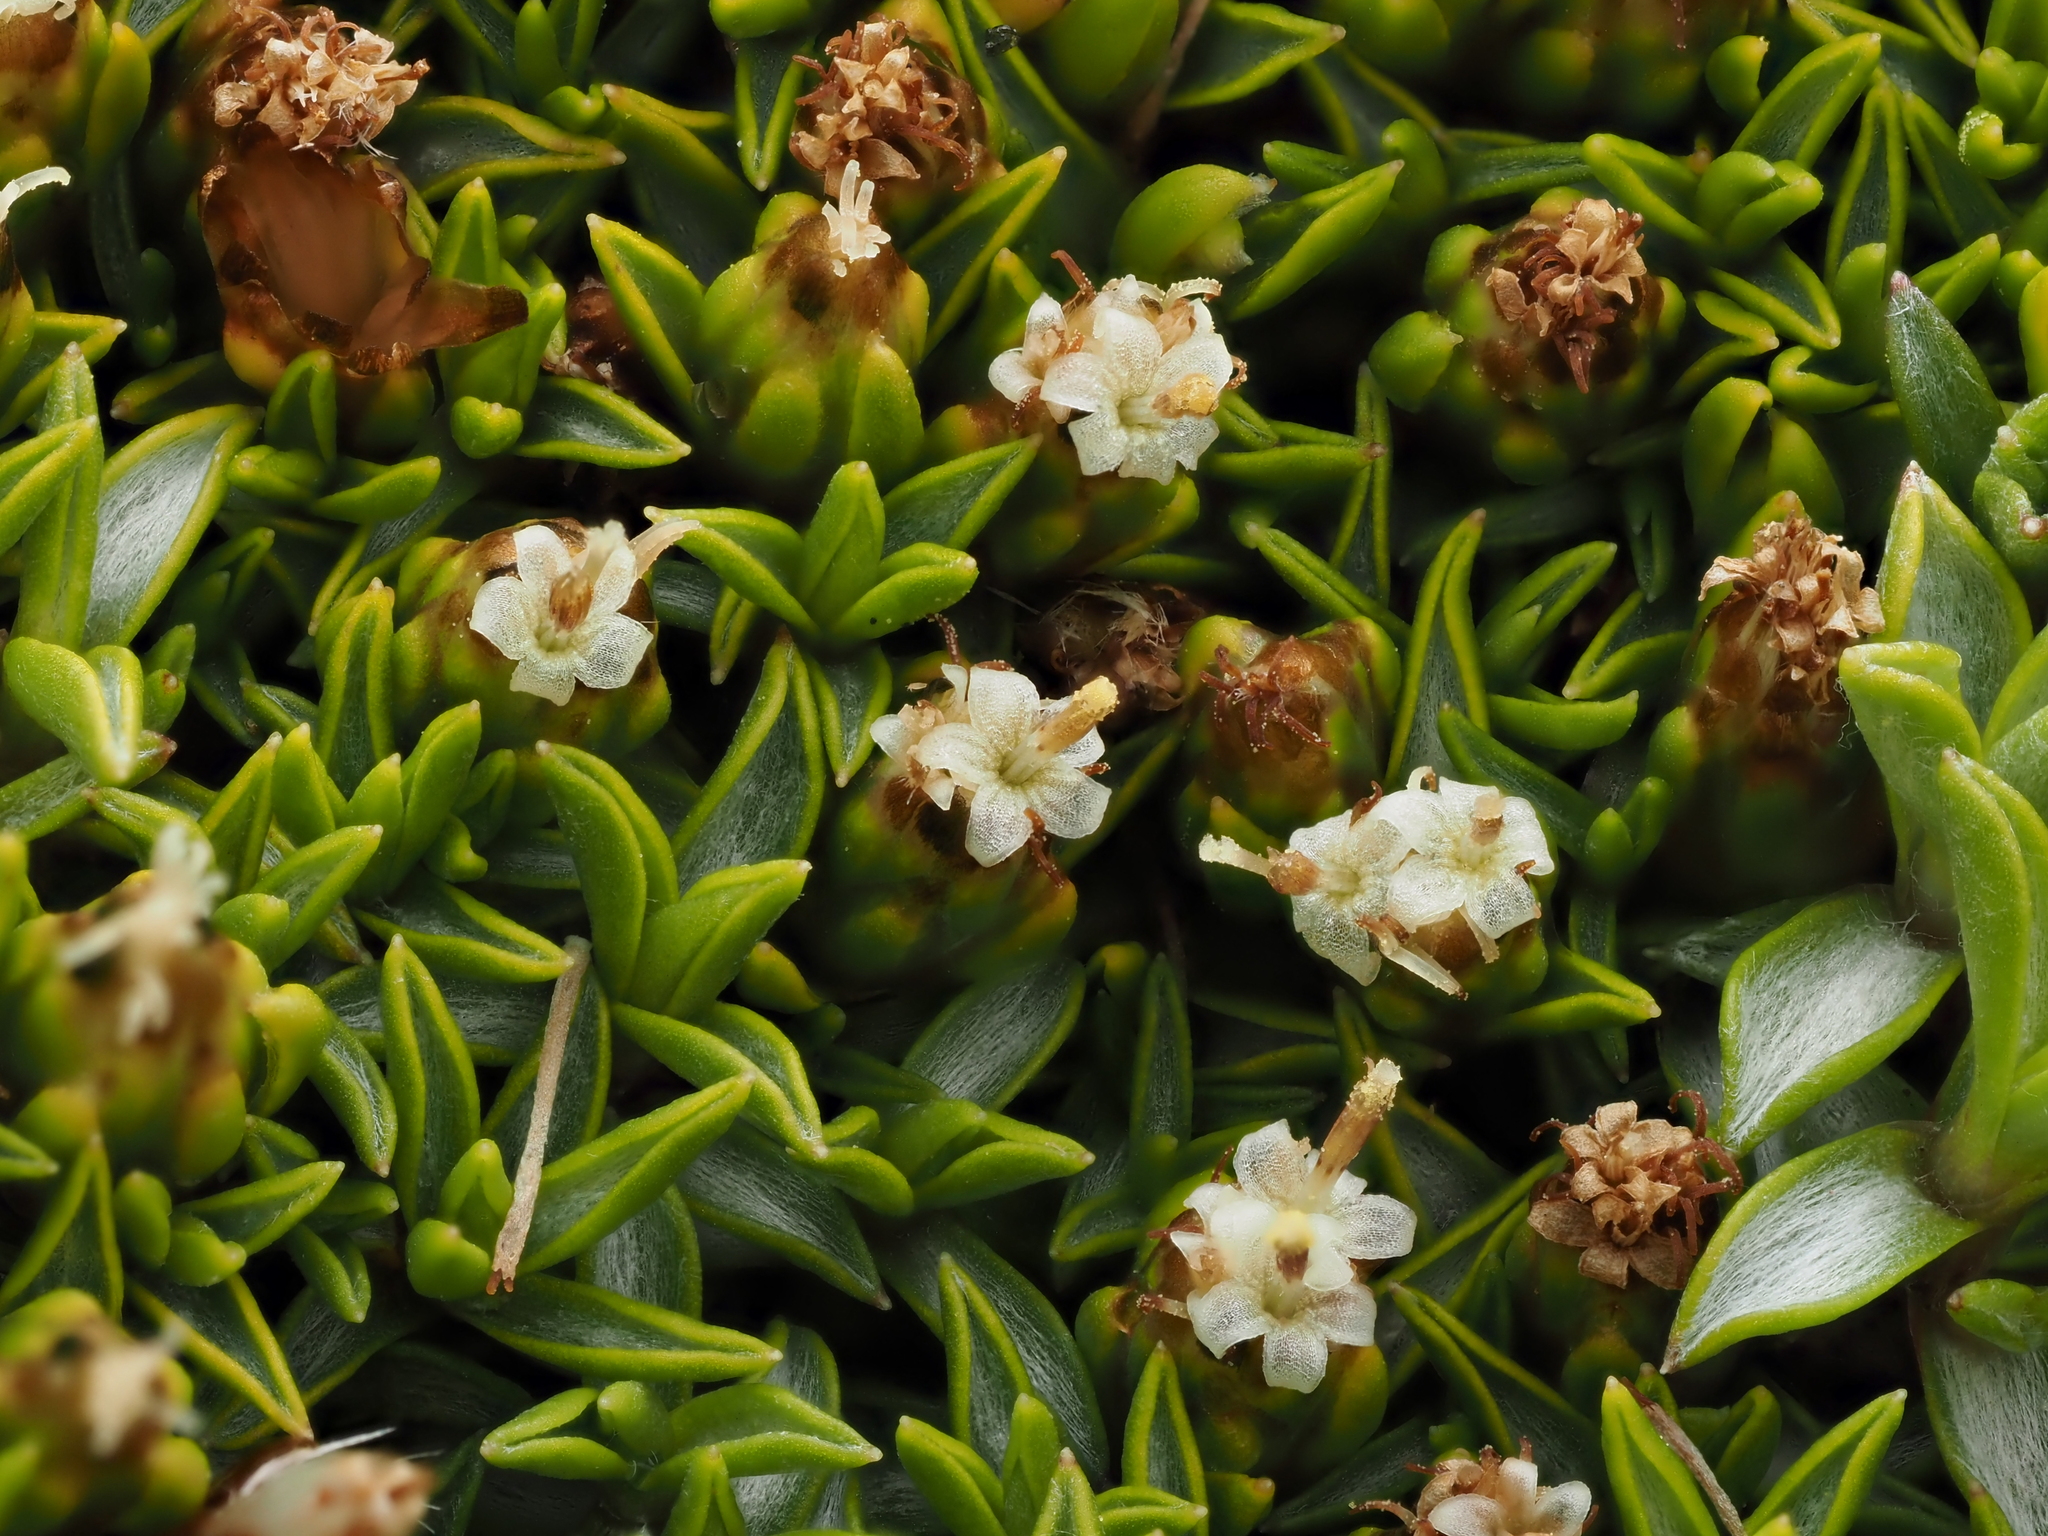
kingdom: Plantae
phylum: Tracheophyta
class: Magnoliopsida
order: Asterales
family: Asteraceae
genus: Raoulia
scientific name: Raoulia tenuicaulis
